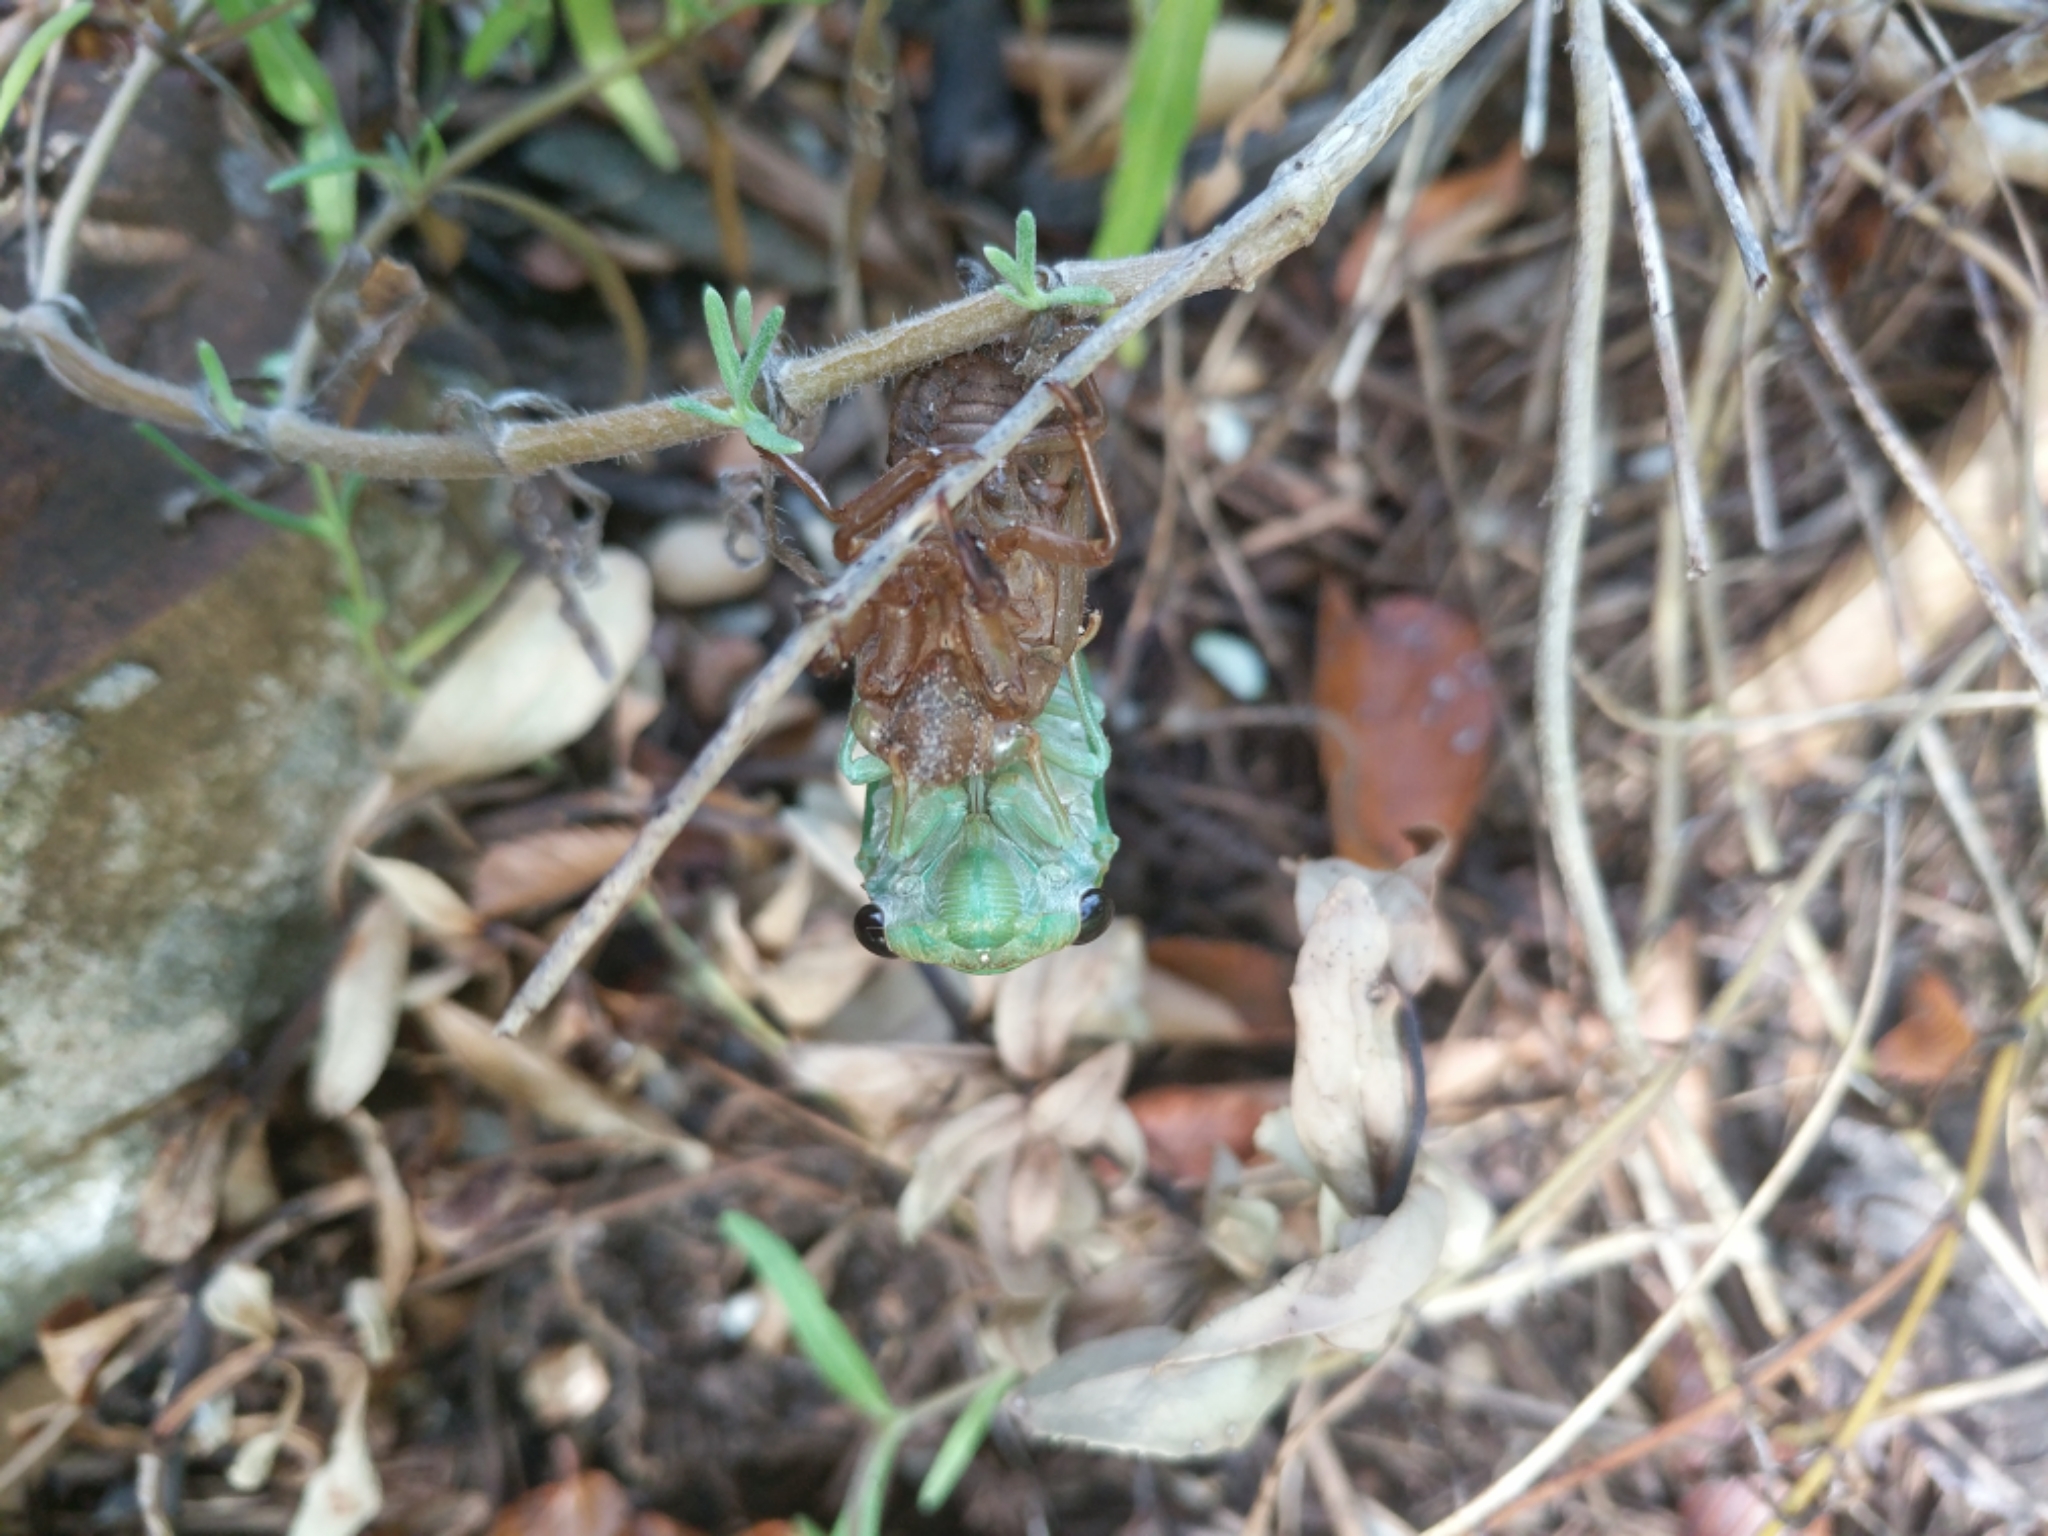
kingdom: Animalia
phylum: Arthropoda
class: Insecta
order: Hemiptera
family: Cicadidae
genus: Neotibicen
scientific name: Neotibicen superbus
